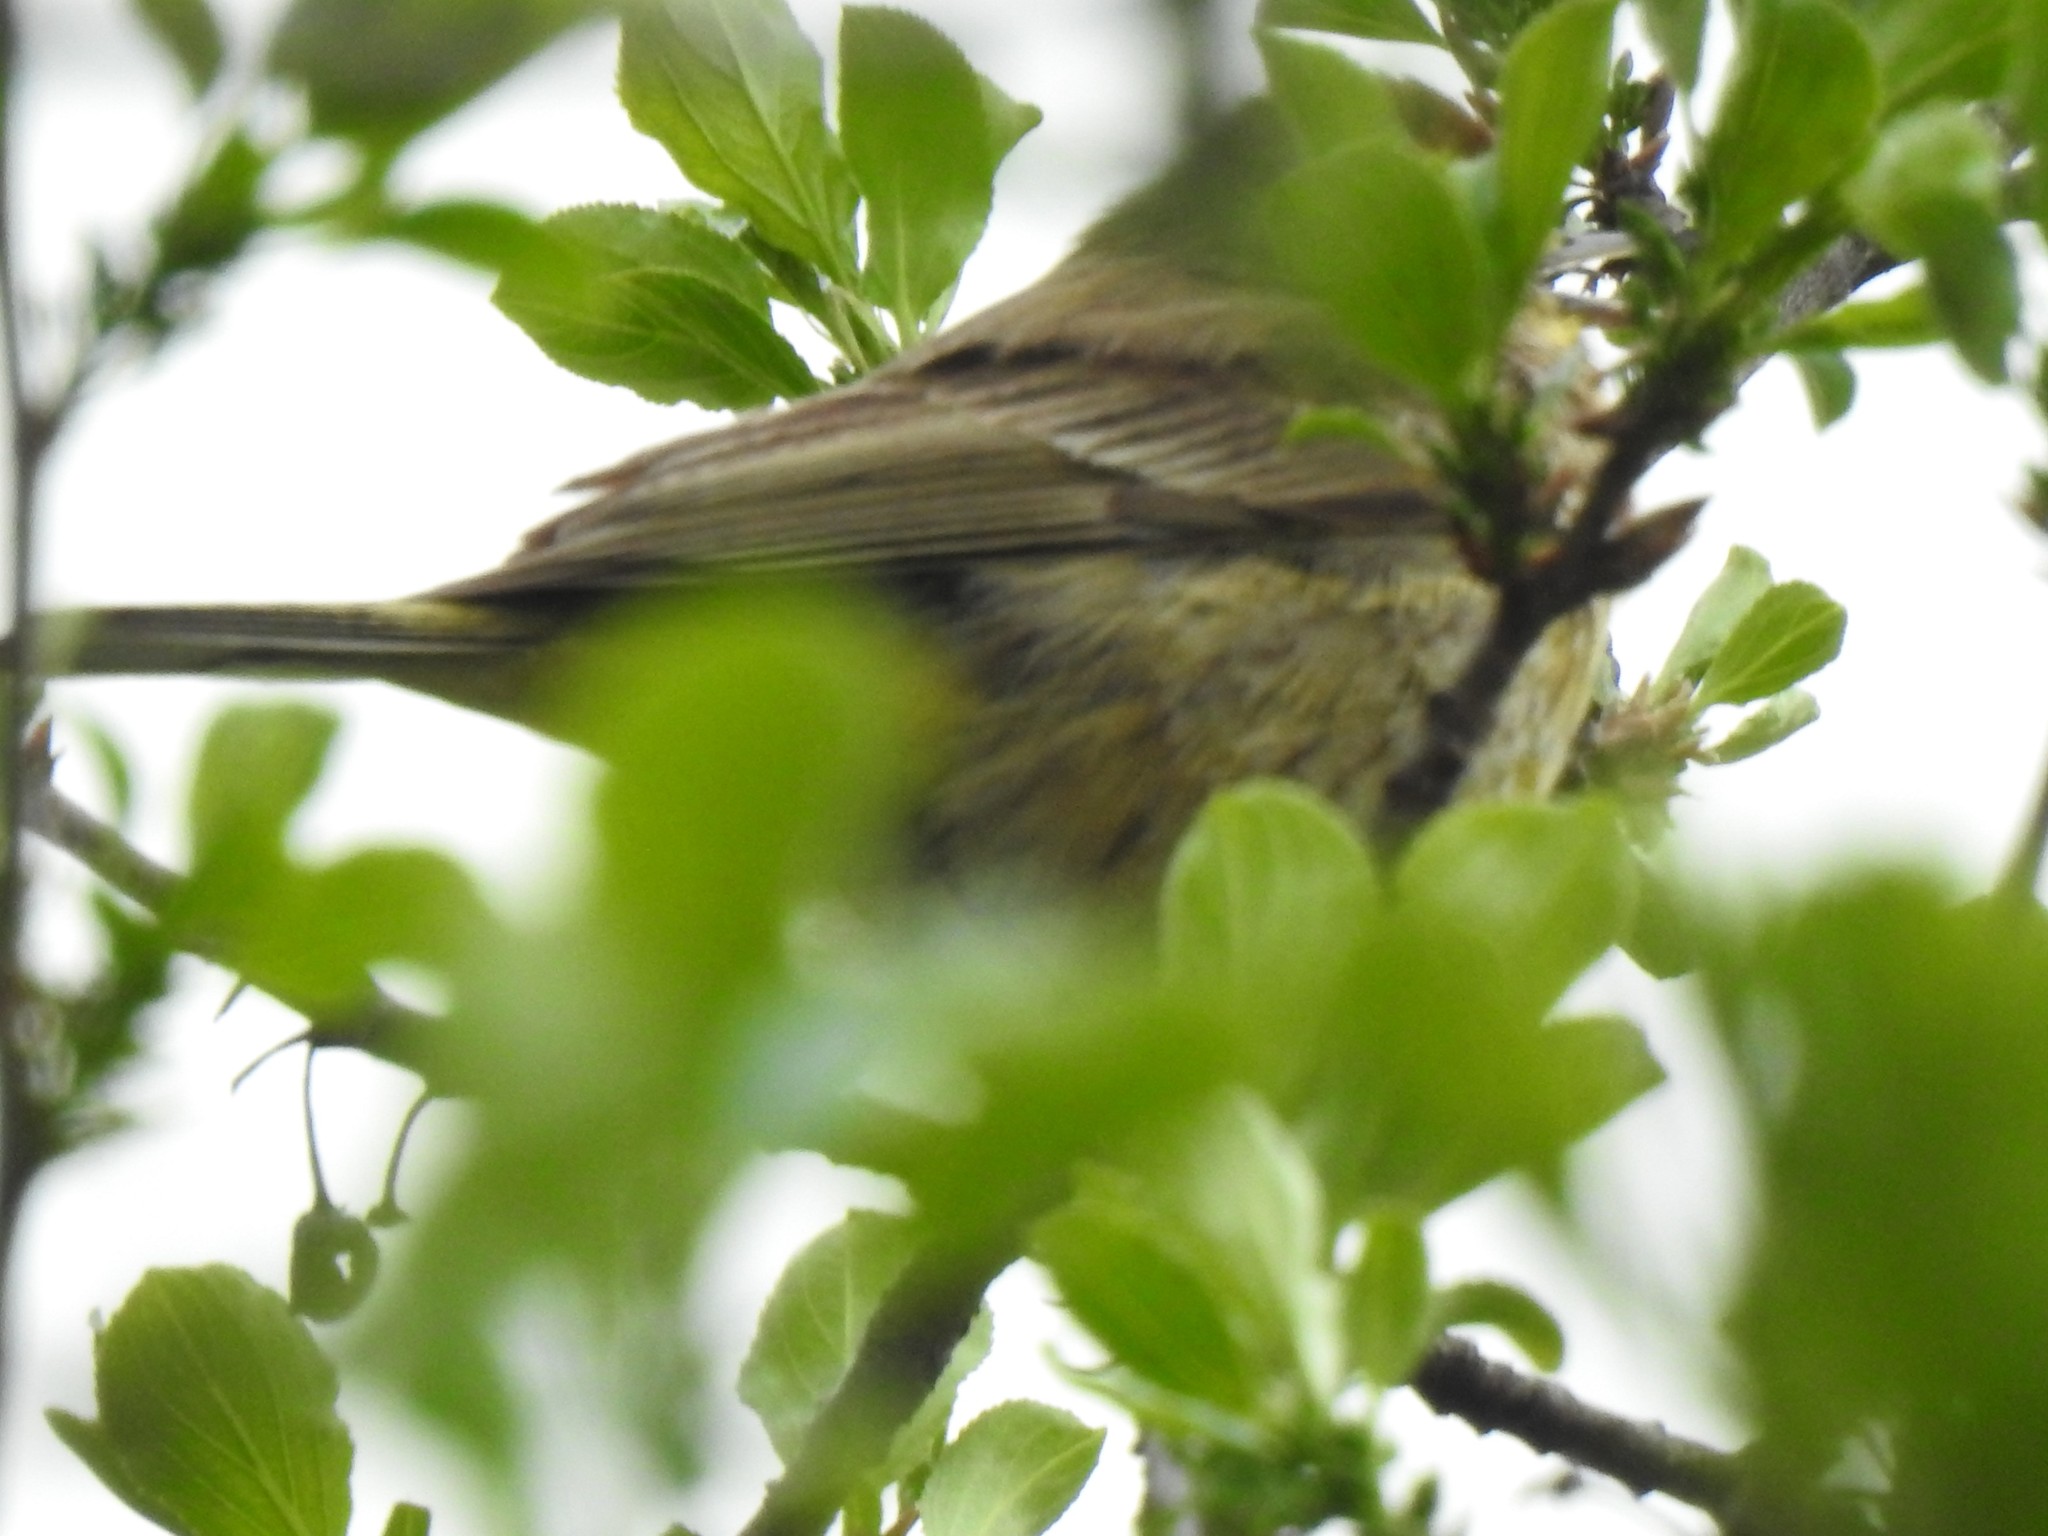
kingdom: Animalia
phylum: Chordata
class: Aves
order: Passeriformes
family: Parulidae
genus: Setophaga
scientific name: Setophaga palmarum
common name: Palm warbler
